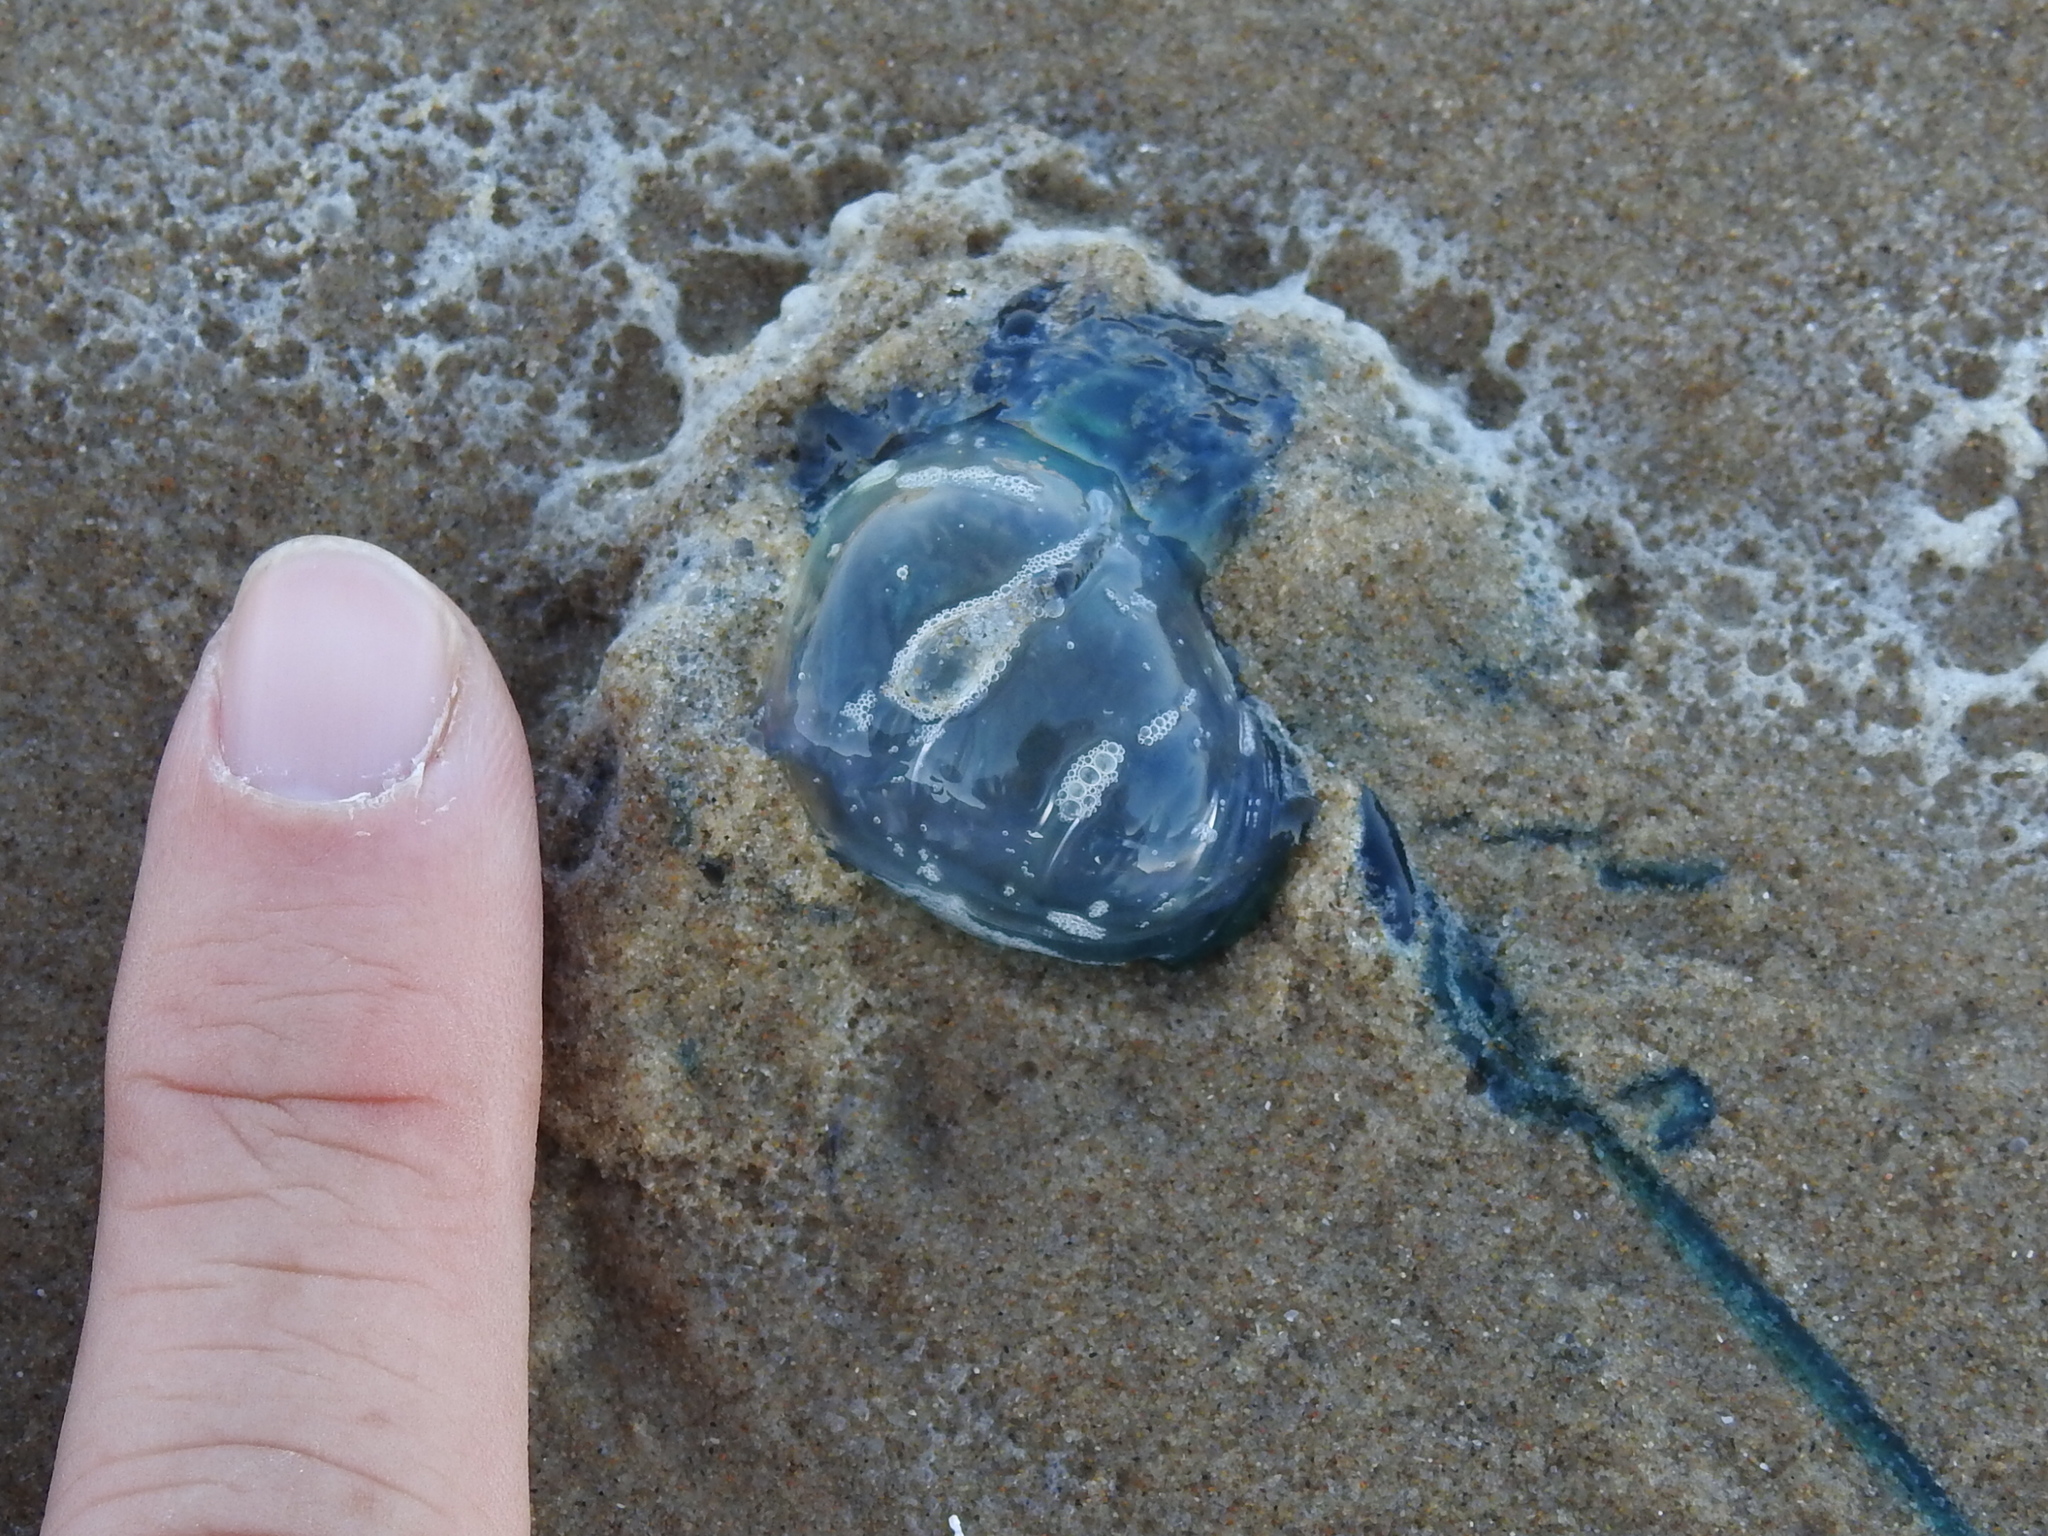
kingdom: Animalia
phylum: Cnidaria
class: Hydrozoa
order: Siphonophorae
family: Physaliidae
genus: Physalia
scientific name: Physalia physalis
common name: Portuguese man-of-war
